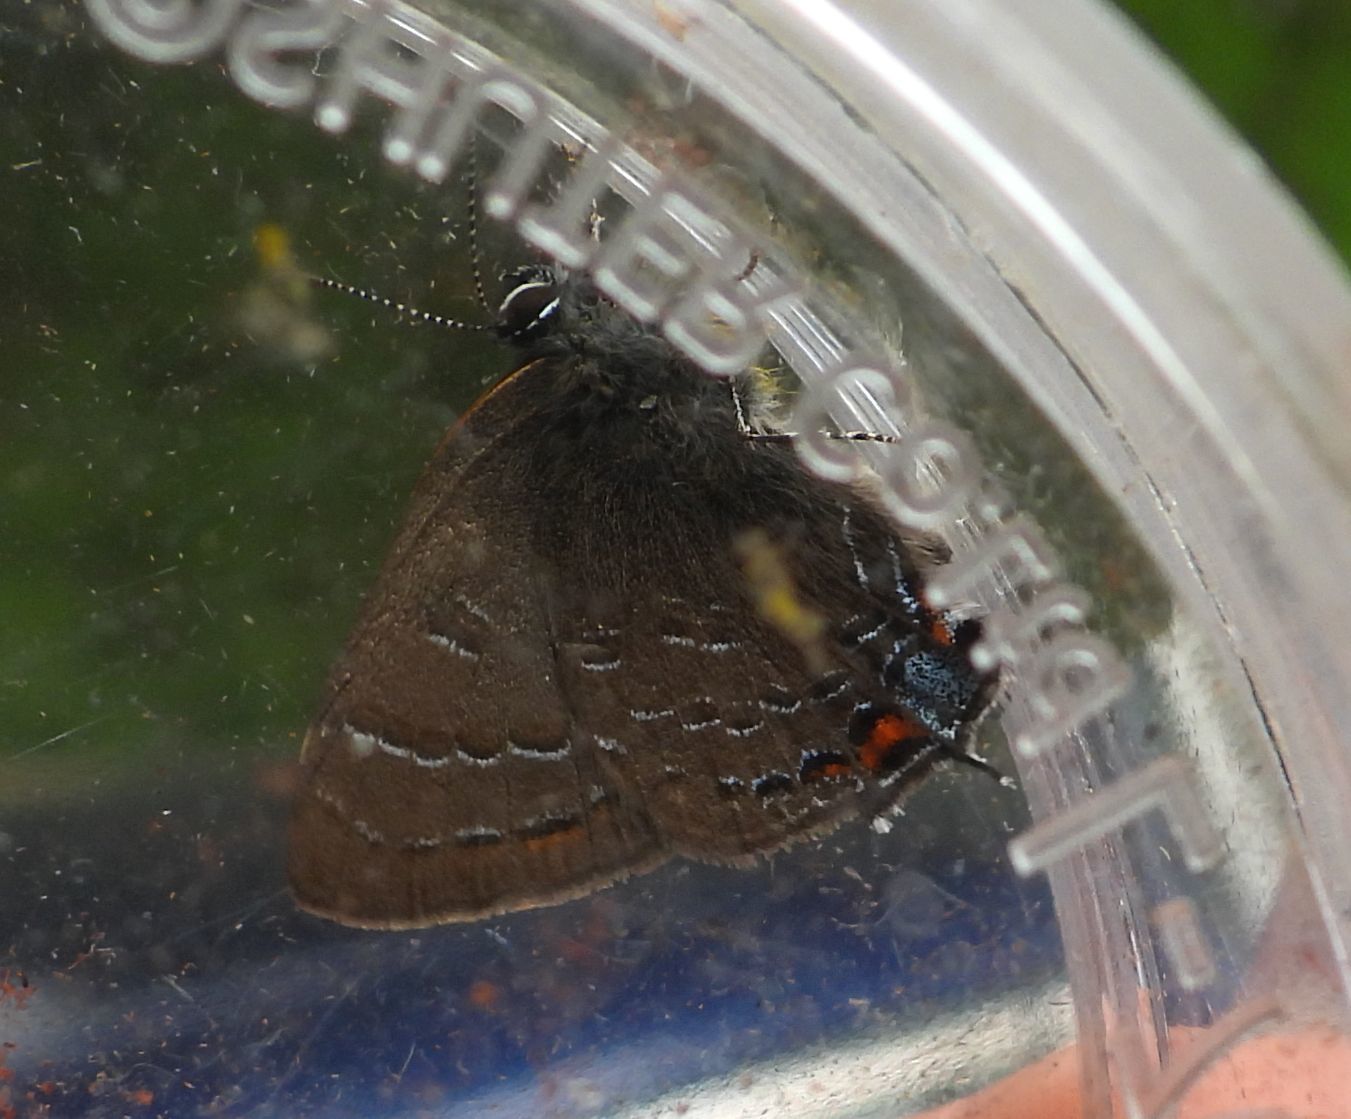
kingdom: Animalia
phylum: Arthropoda
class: Insecta
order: Lepidoptera
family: Lycaenidae
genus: Satyrium
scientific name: Satyrium calanus
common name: Banded hairstreak
